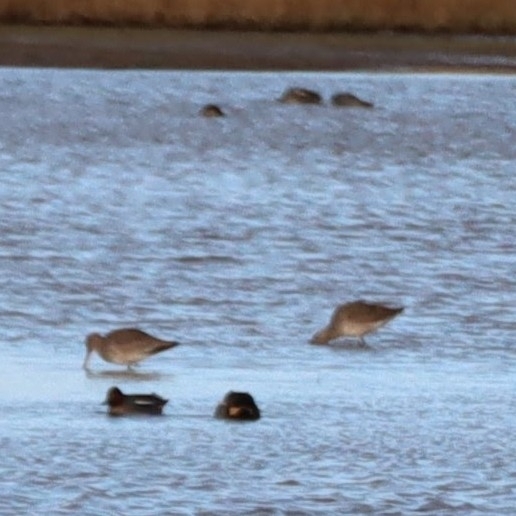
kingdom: Animalia
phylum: Chordata
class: Aves
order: Charadriiformes
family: Scolopacidae
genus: Limosa
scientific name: Limosa limosa
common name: Black-tailed godwit
